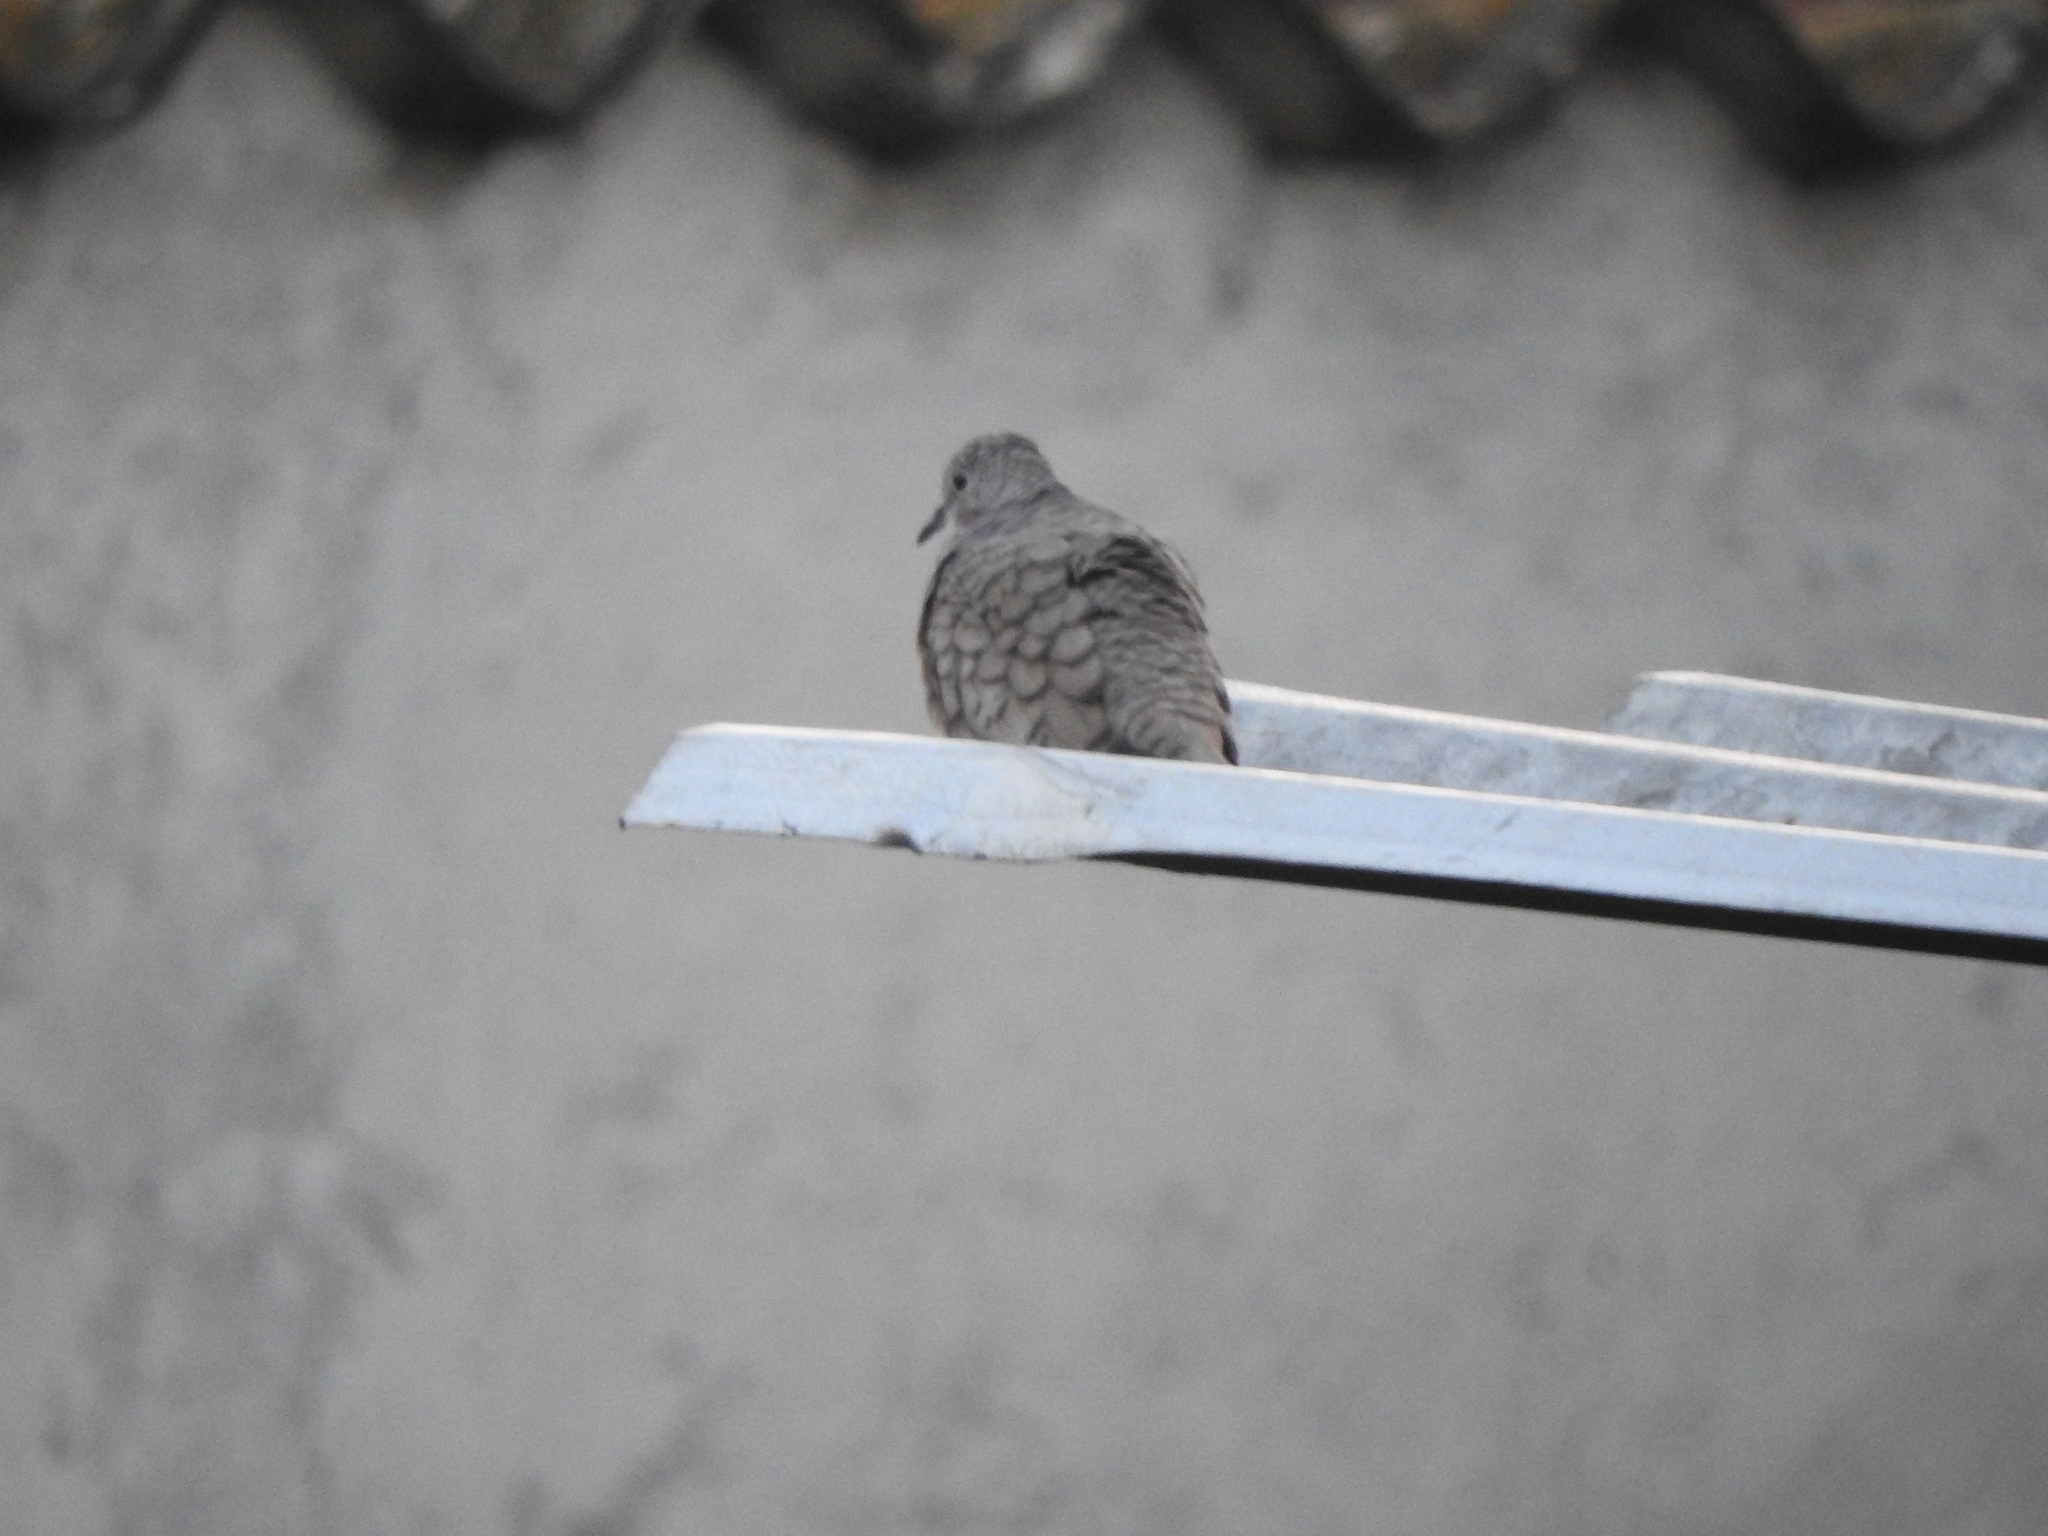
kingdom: Animalia
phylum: Chordata
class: Aves
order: Columbiformes
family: Columbidae
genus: Columbina
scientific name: Columbina inca
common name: Inca dove
